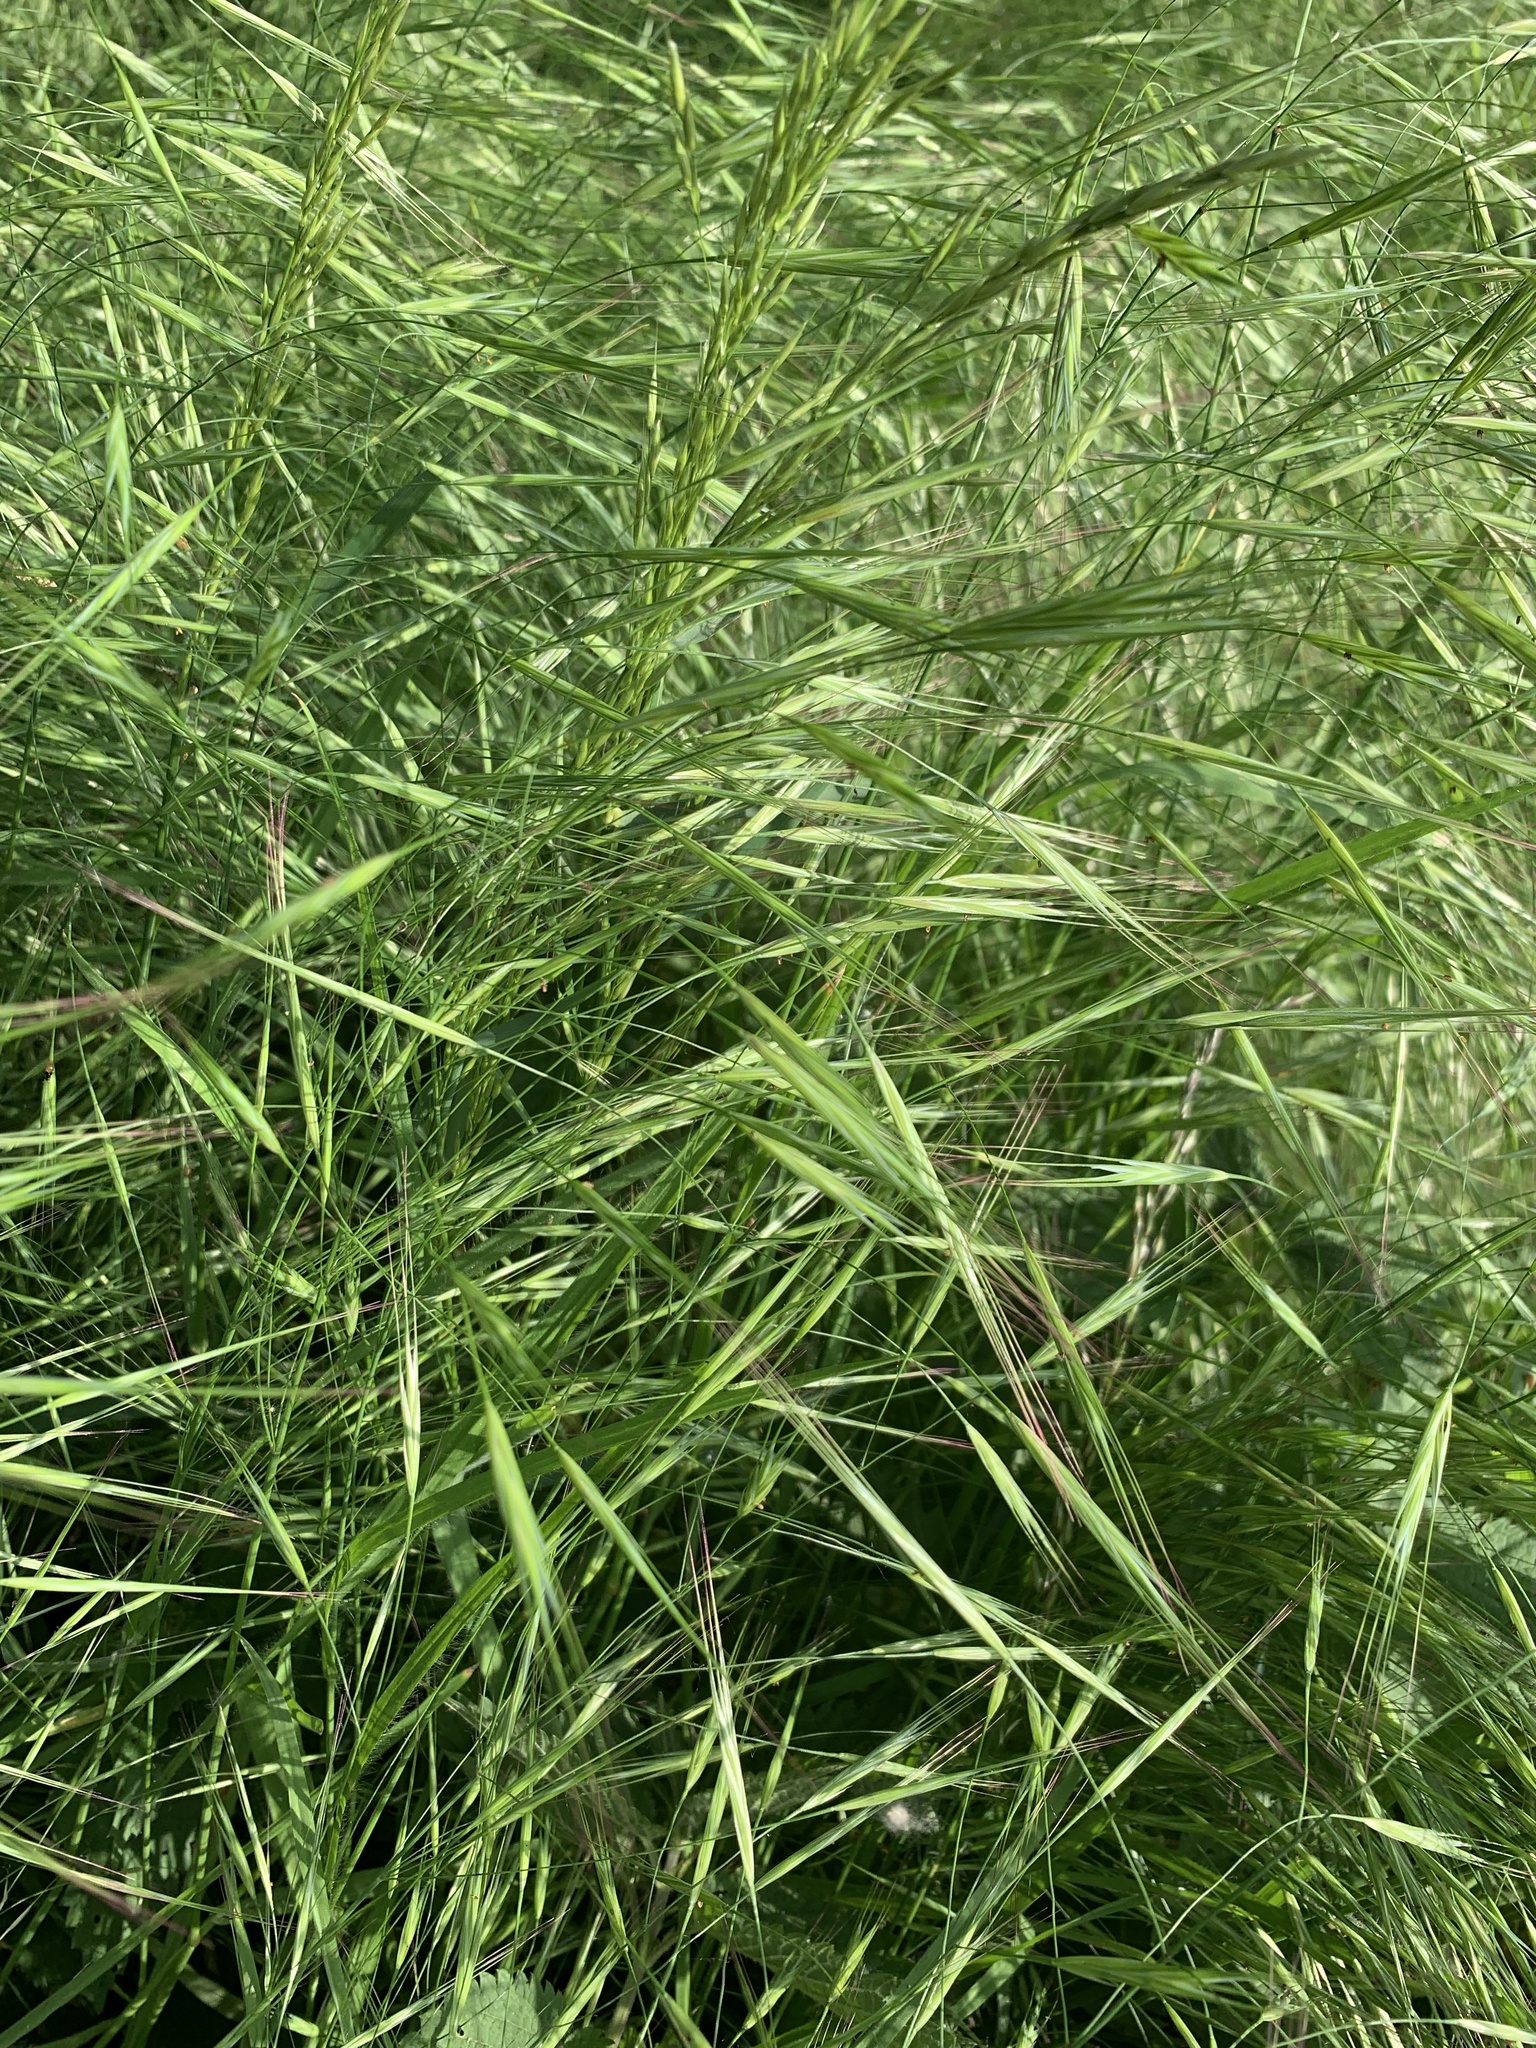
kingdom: Plantae
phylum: Tracheophyta
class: Liliopsida
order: Poales
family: Poaceae
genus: Bromus
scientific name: Bromus sterilis
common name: Poverty brome
